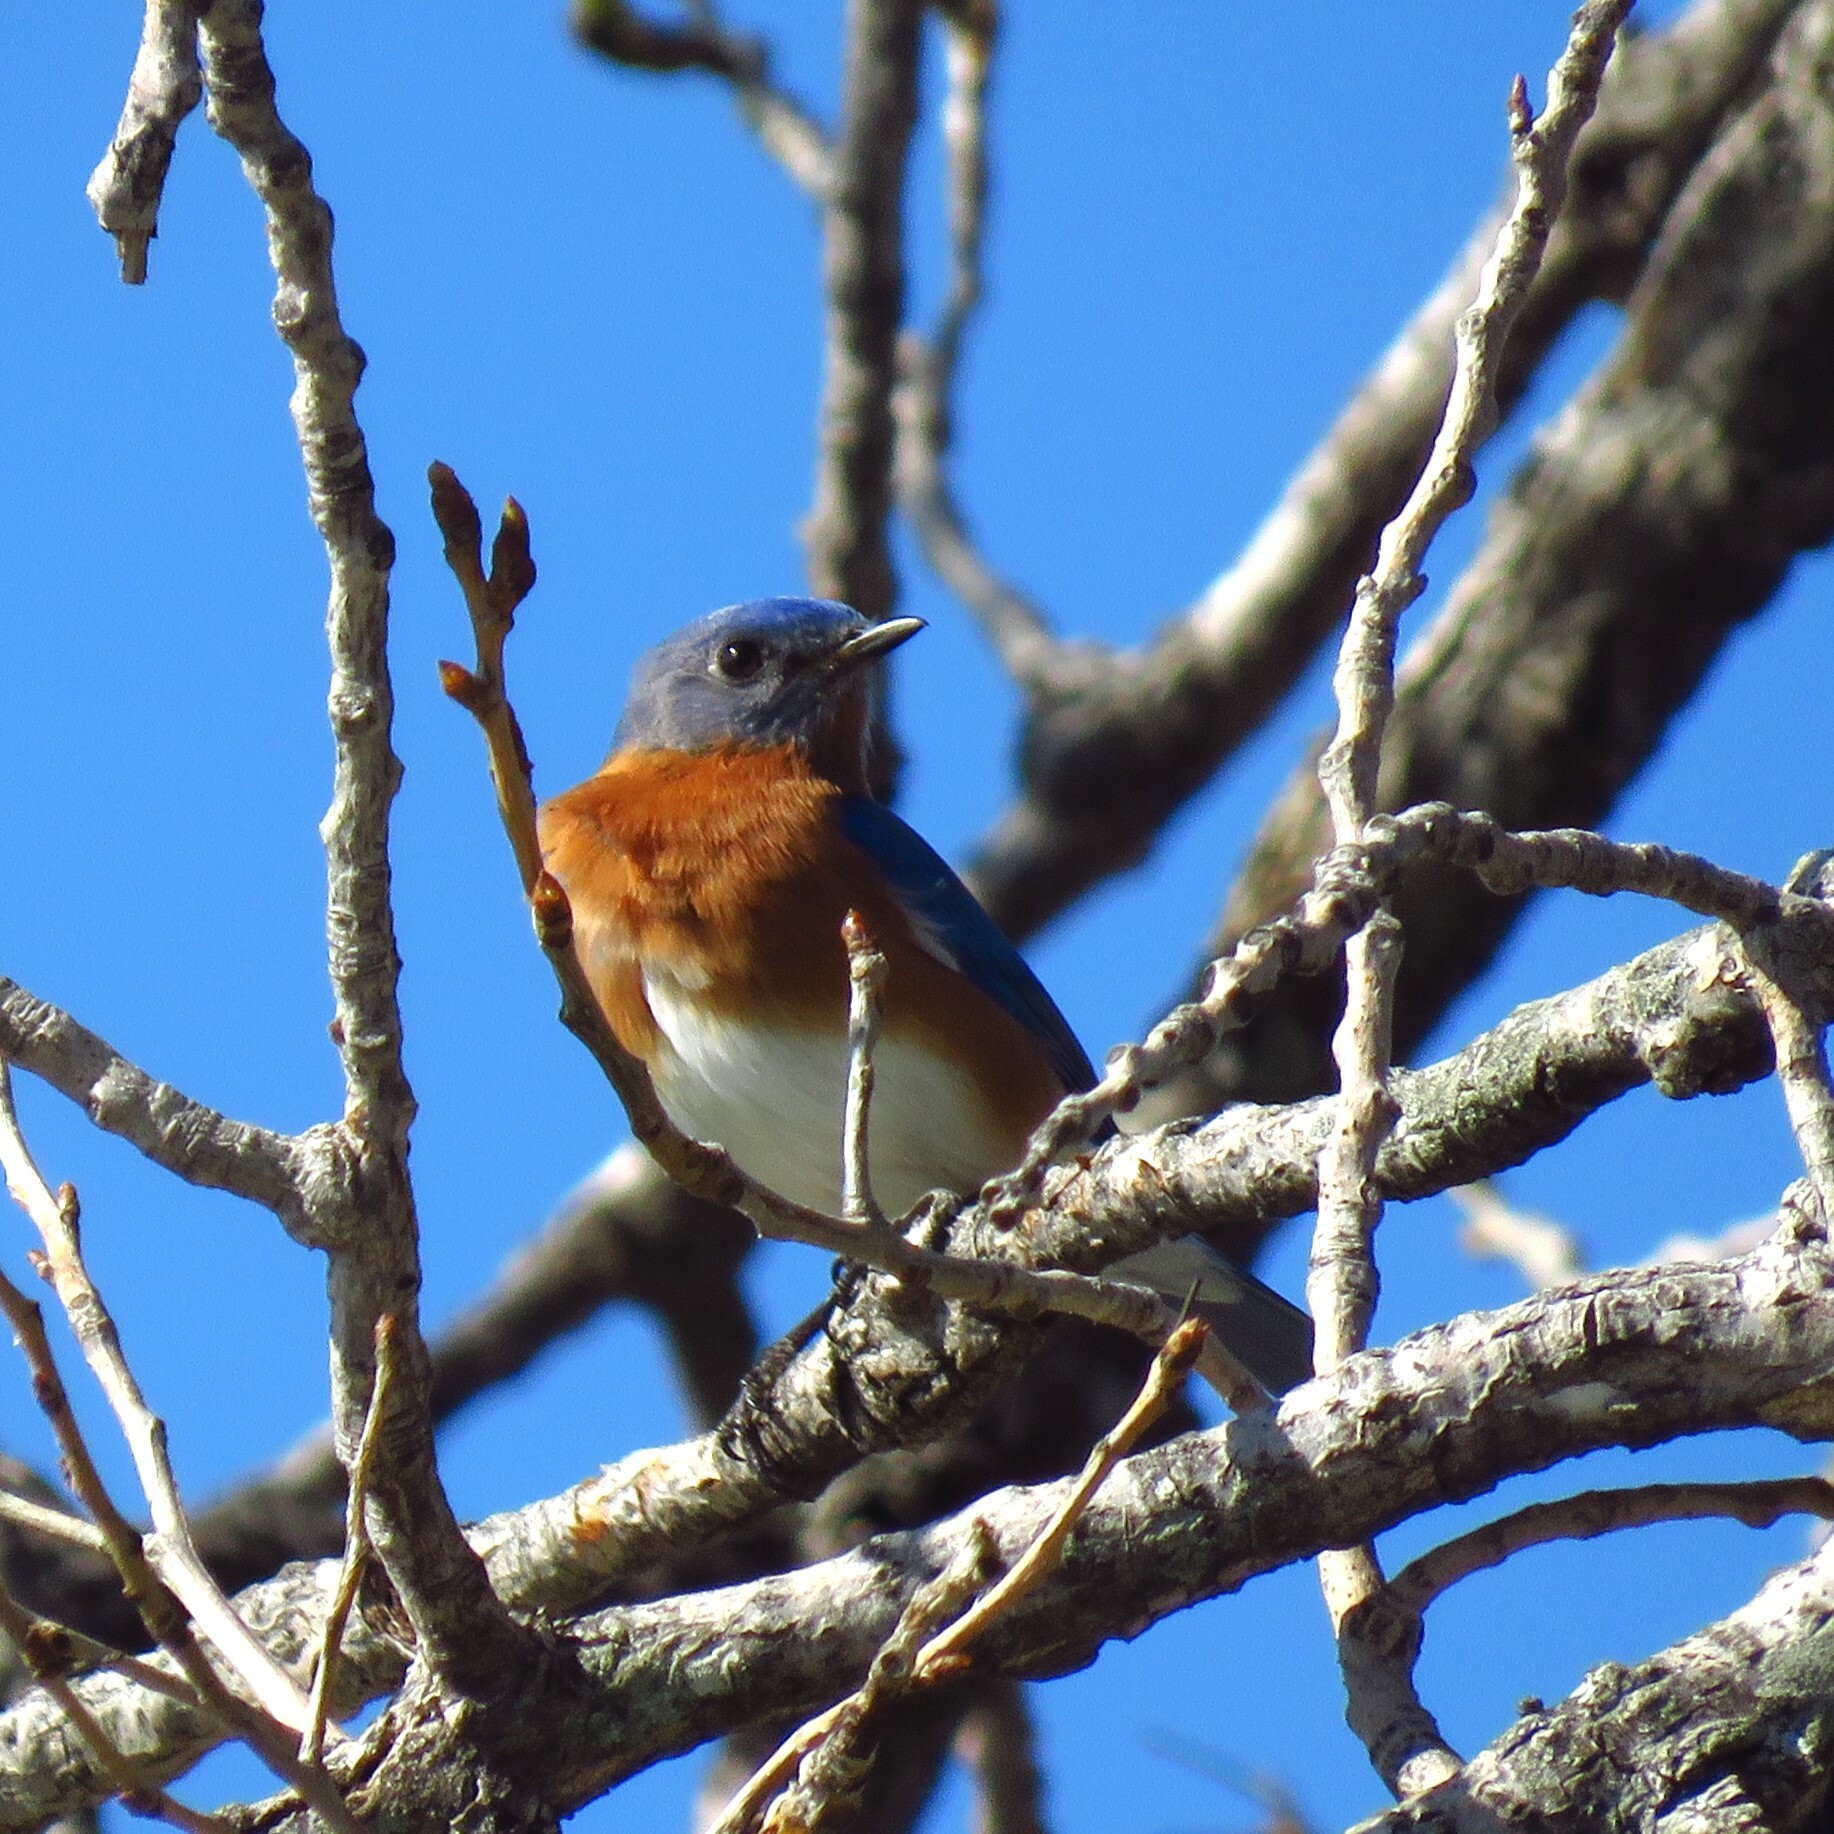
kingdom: Animalia
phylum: Chordata
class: Aves
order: Passeriformes
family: Turdidae
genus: Sialia
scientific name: Sialia sialis
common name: Eastern bluebird
